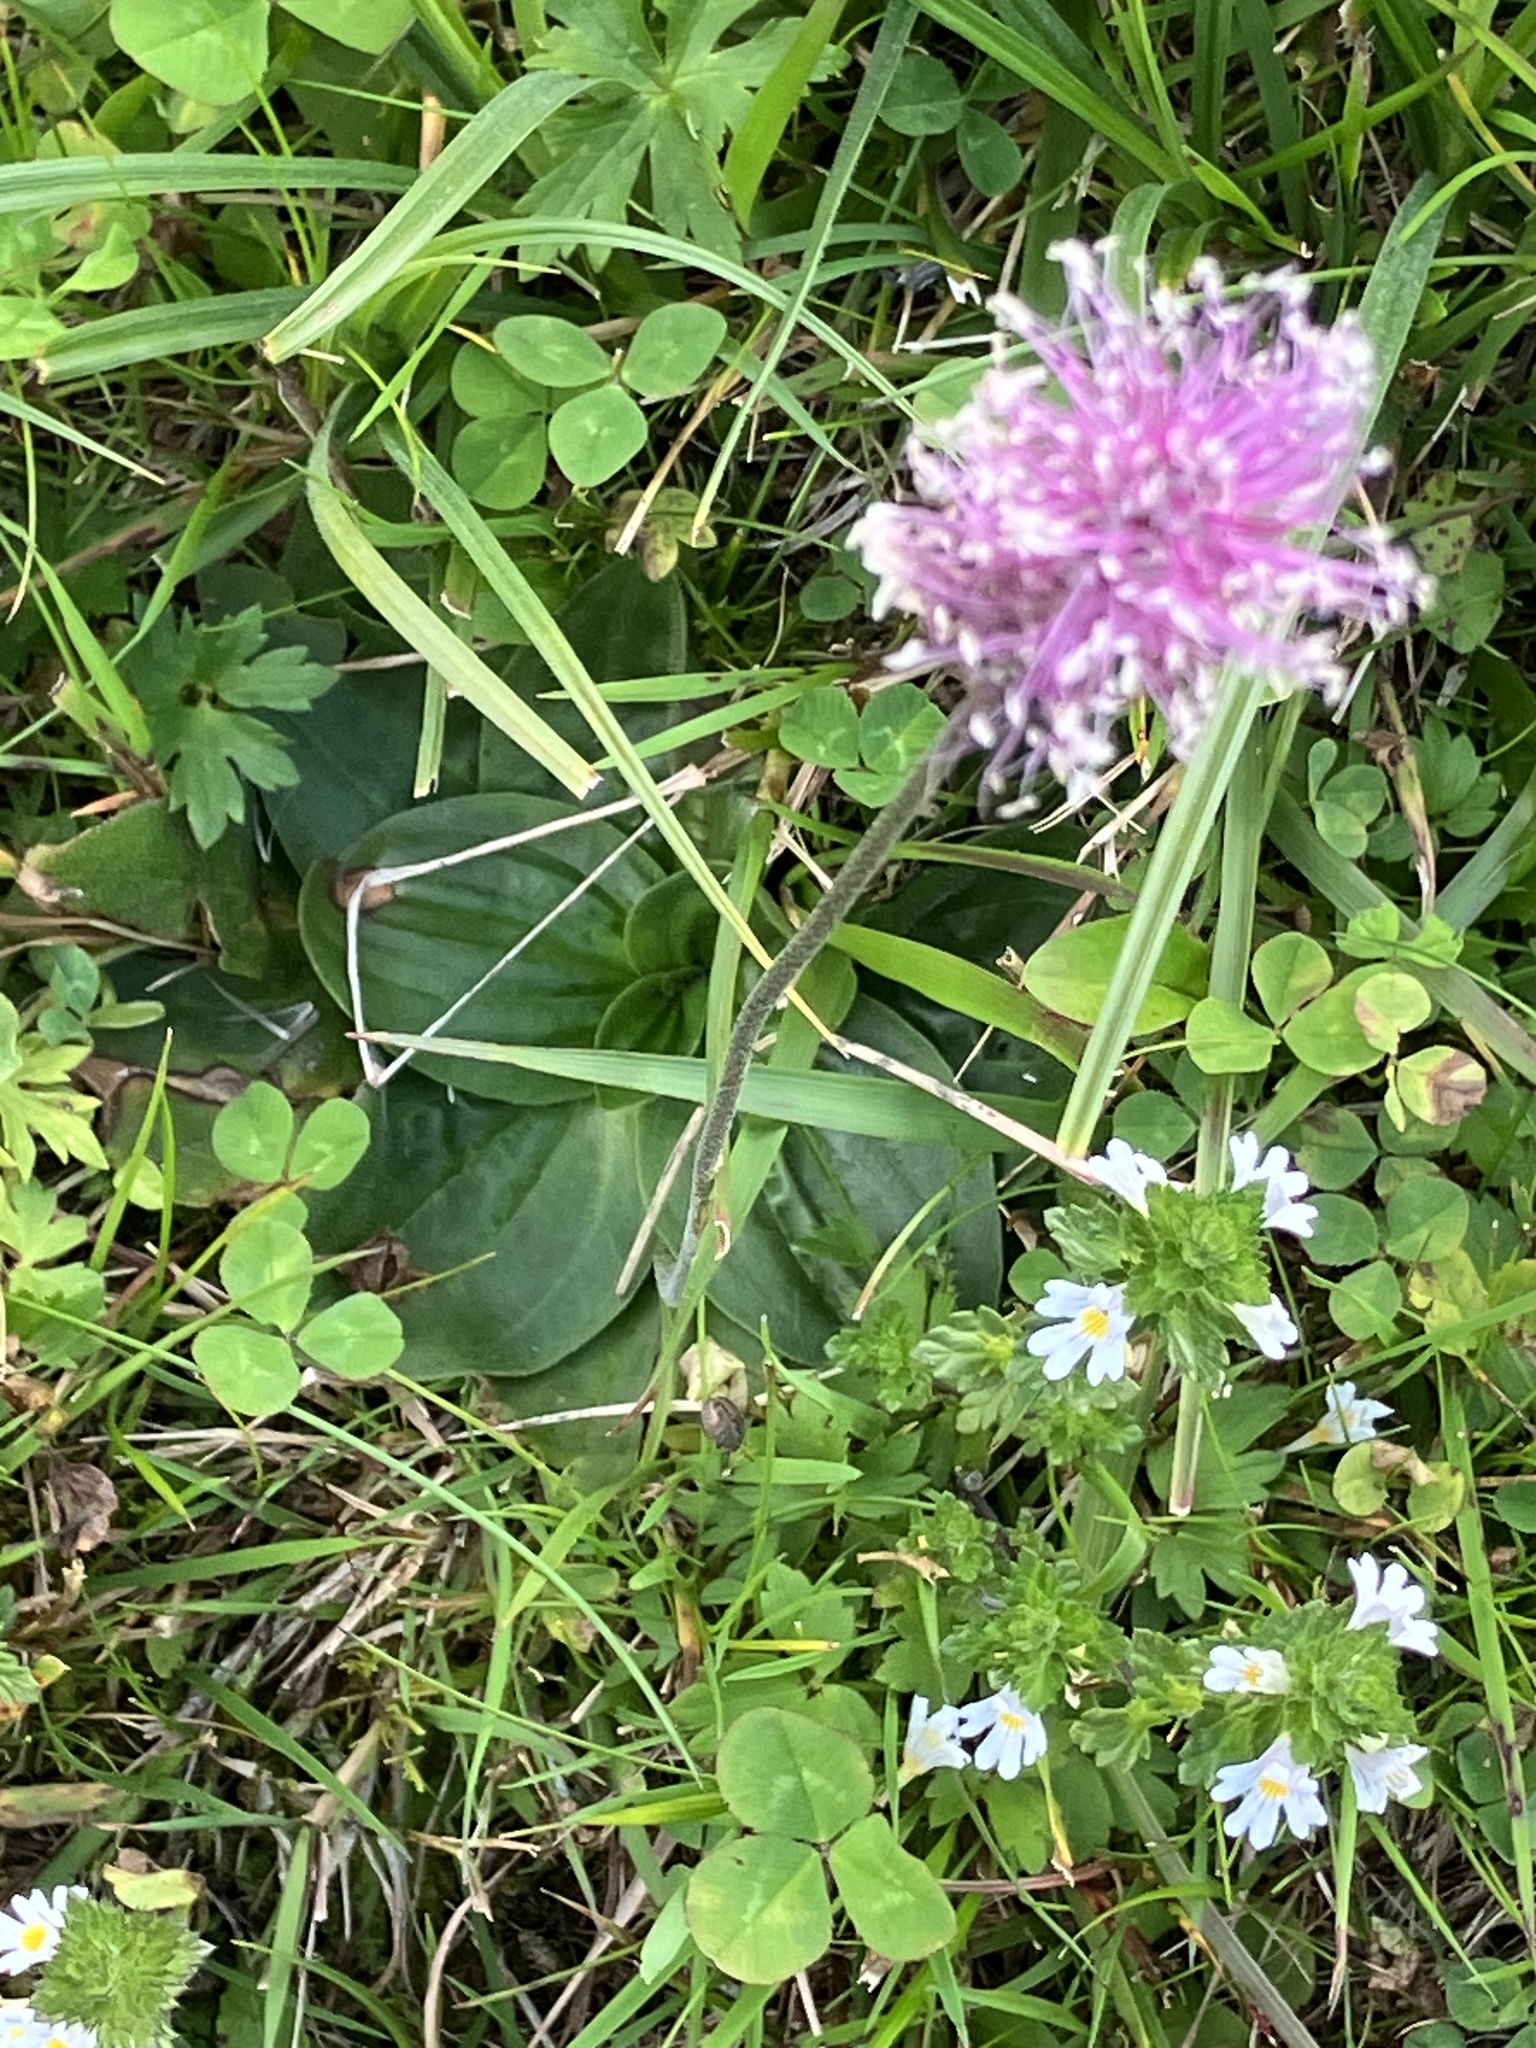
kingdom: Plantae
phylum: Tracheophyta
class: Magnoliopsida
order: Lamiales
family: Plantaginaceae
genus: Plantago
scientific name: Plantago media
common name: Hoary plantain
